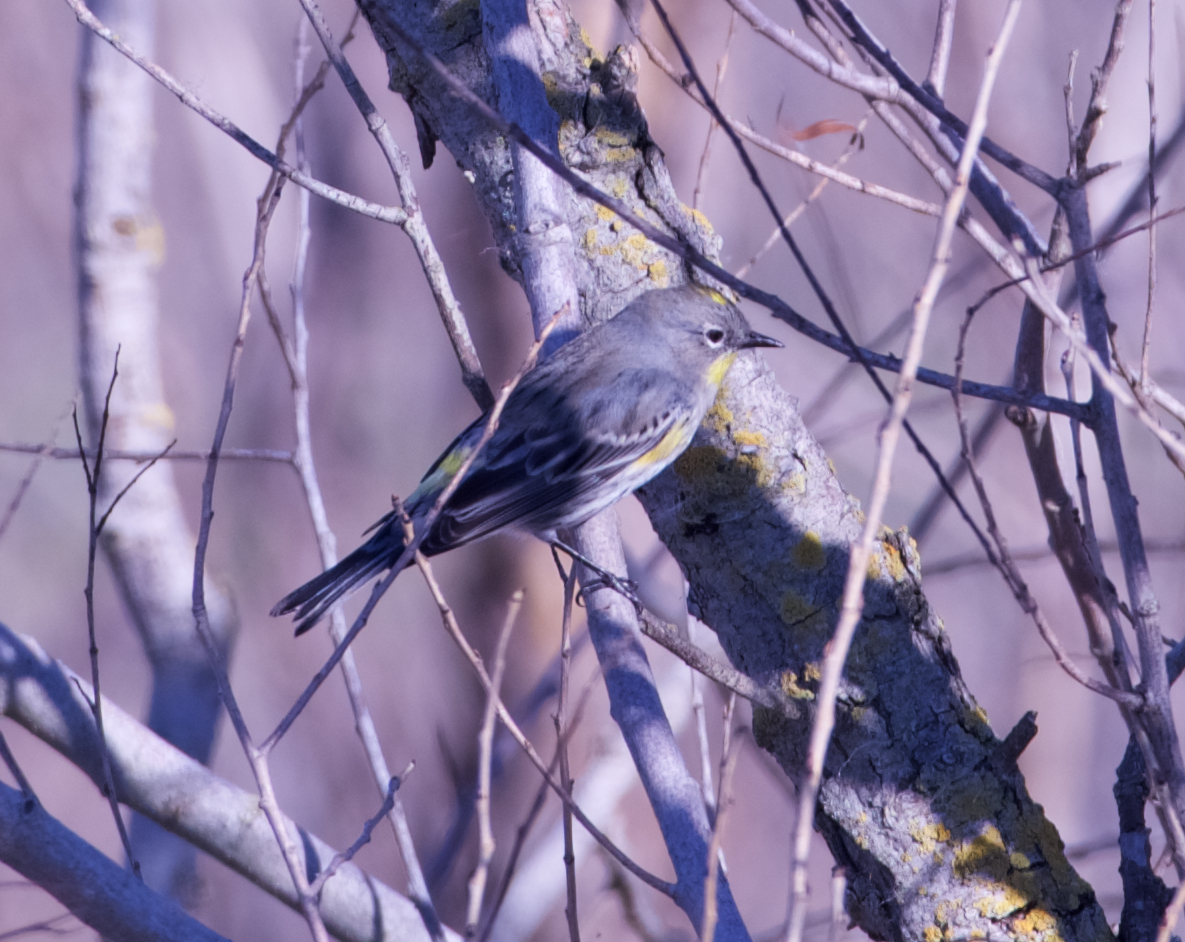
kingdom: Animalia
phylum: Chordata
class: Aves
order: Passeriformes
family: Parulidae
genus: Setophaga
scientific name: Setophaga coronata
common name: Myrtle warbler
